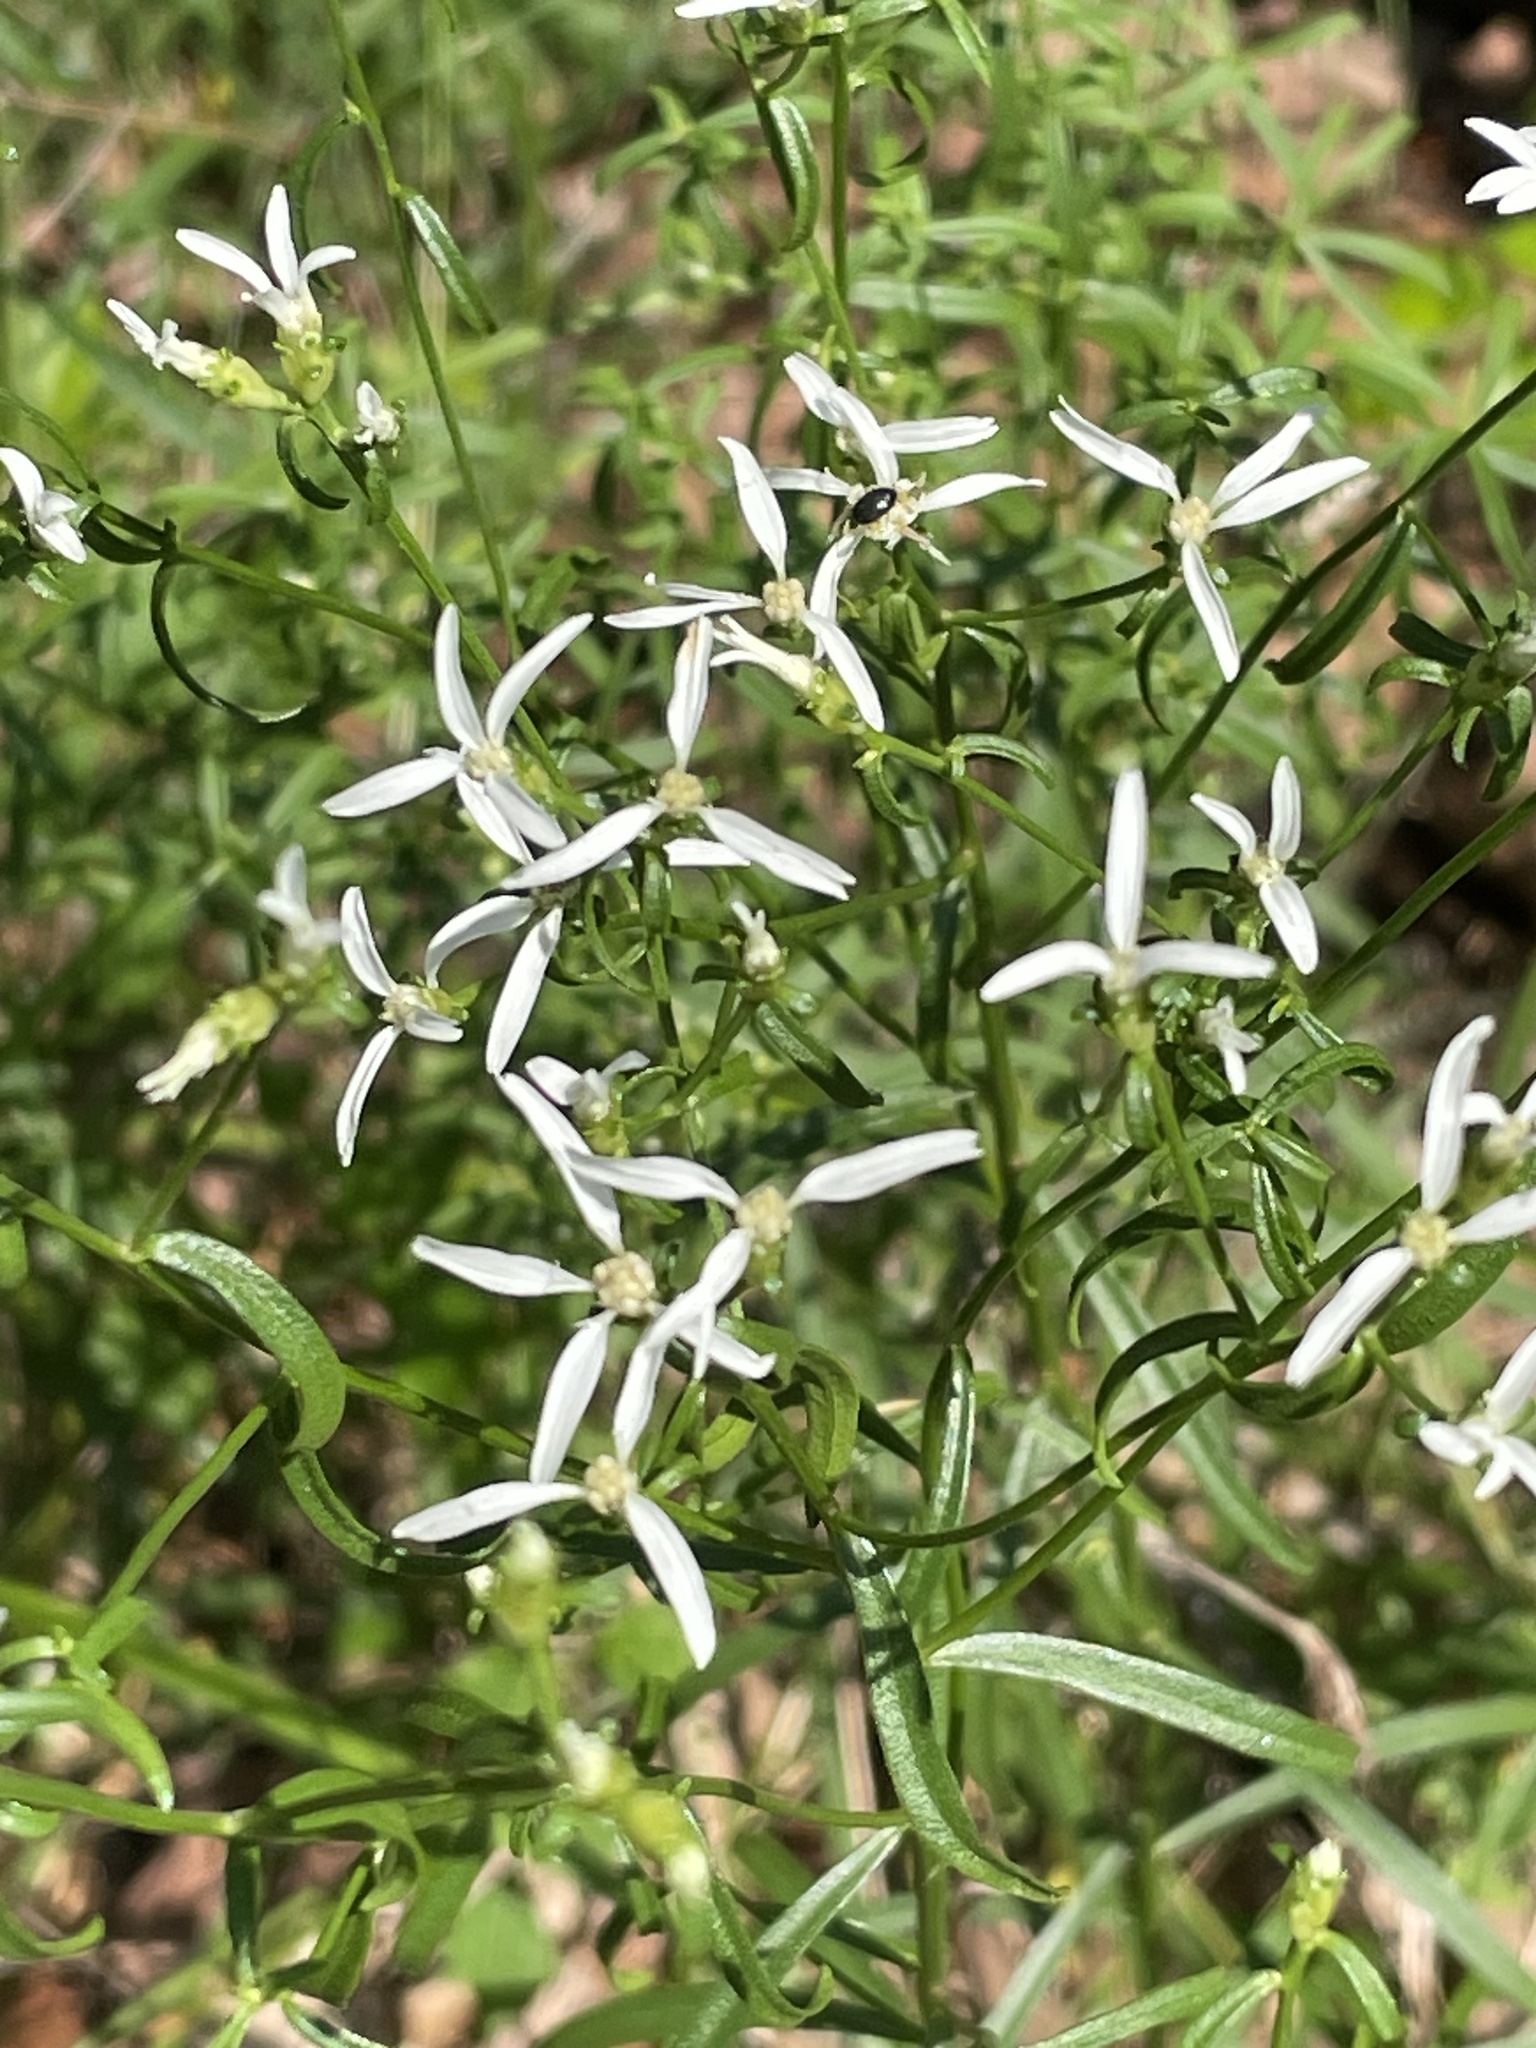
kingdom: Plantae
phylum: Tracheophyta
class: Magnoliopsida
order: Asterales
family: Asteraceae
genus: Sericocarpus
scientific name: Sericocarpus linifolius
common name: Narrow-leaf aster
